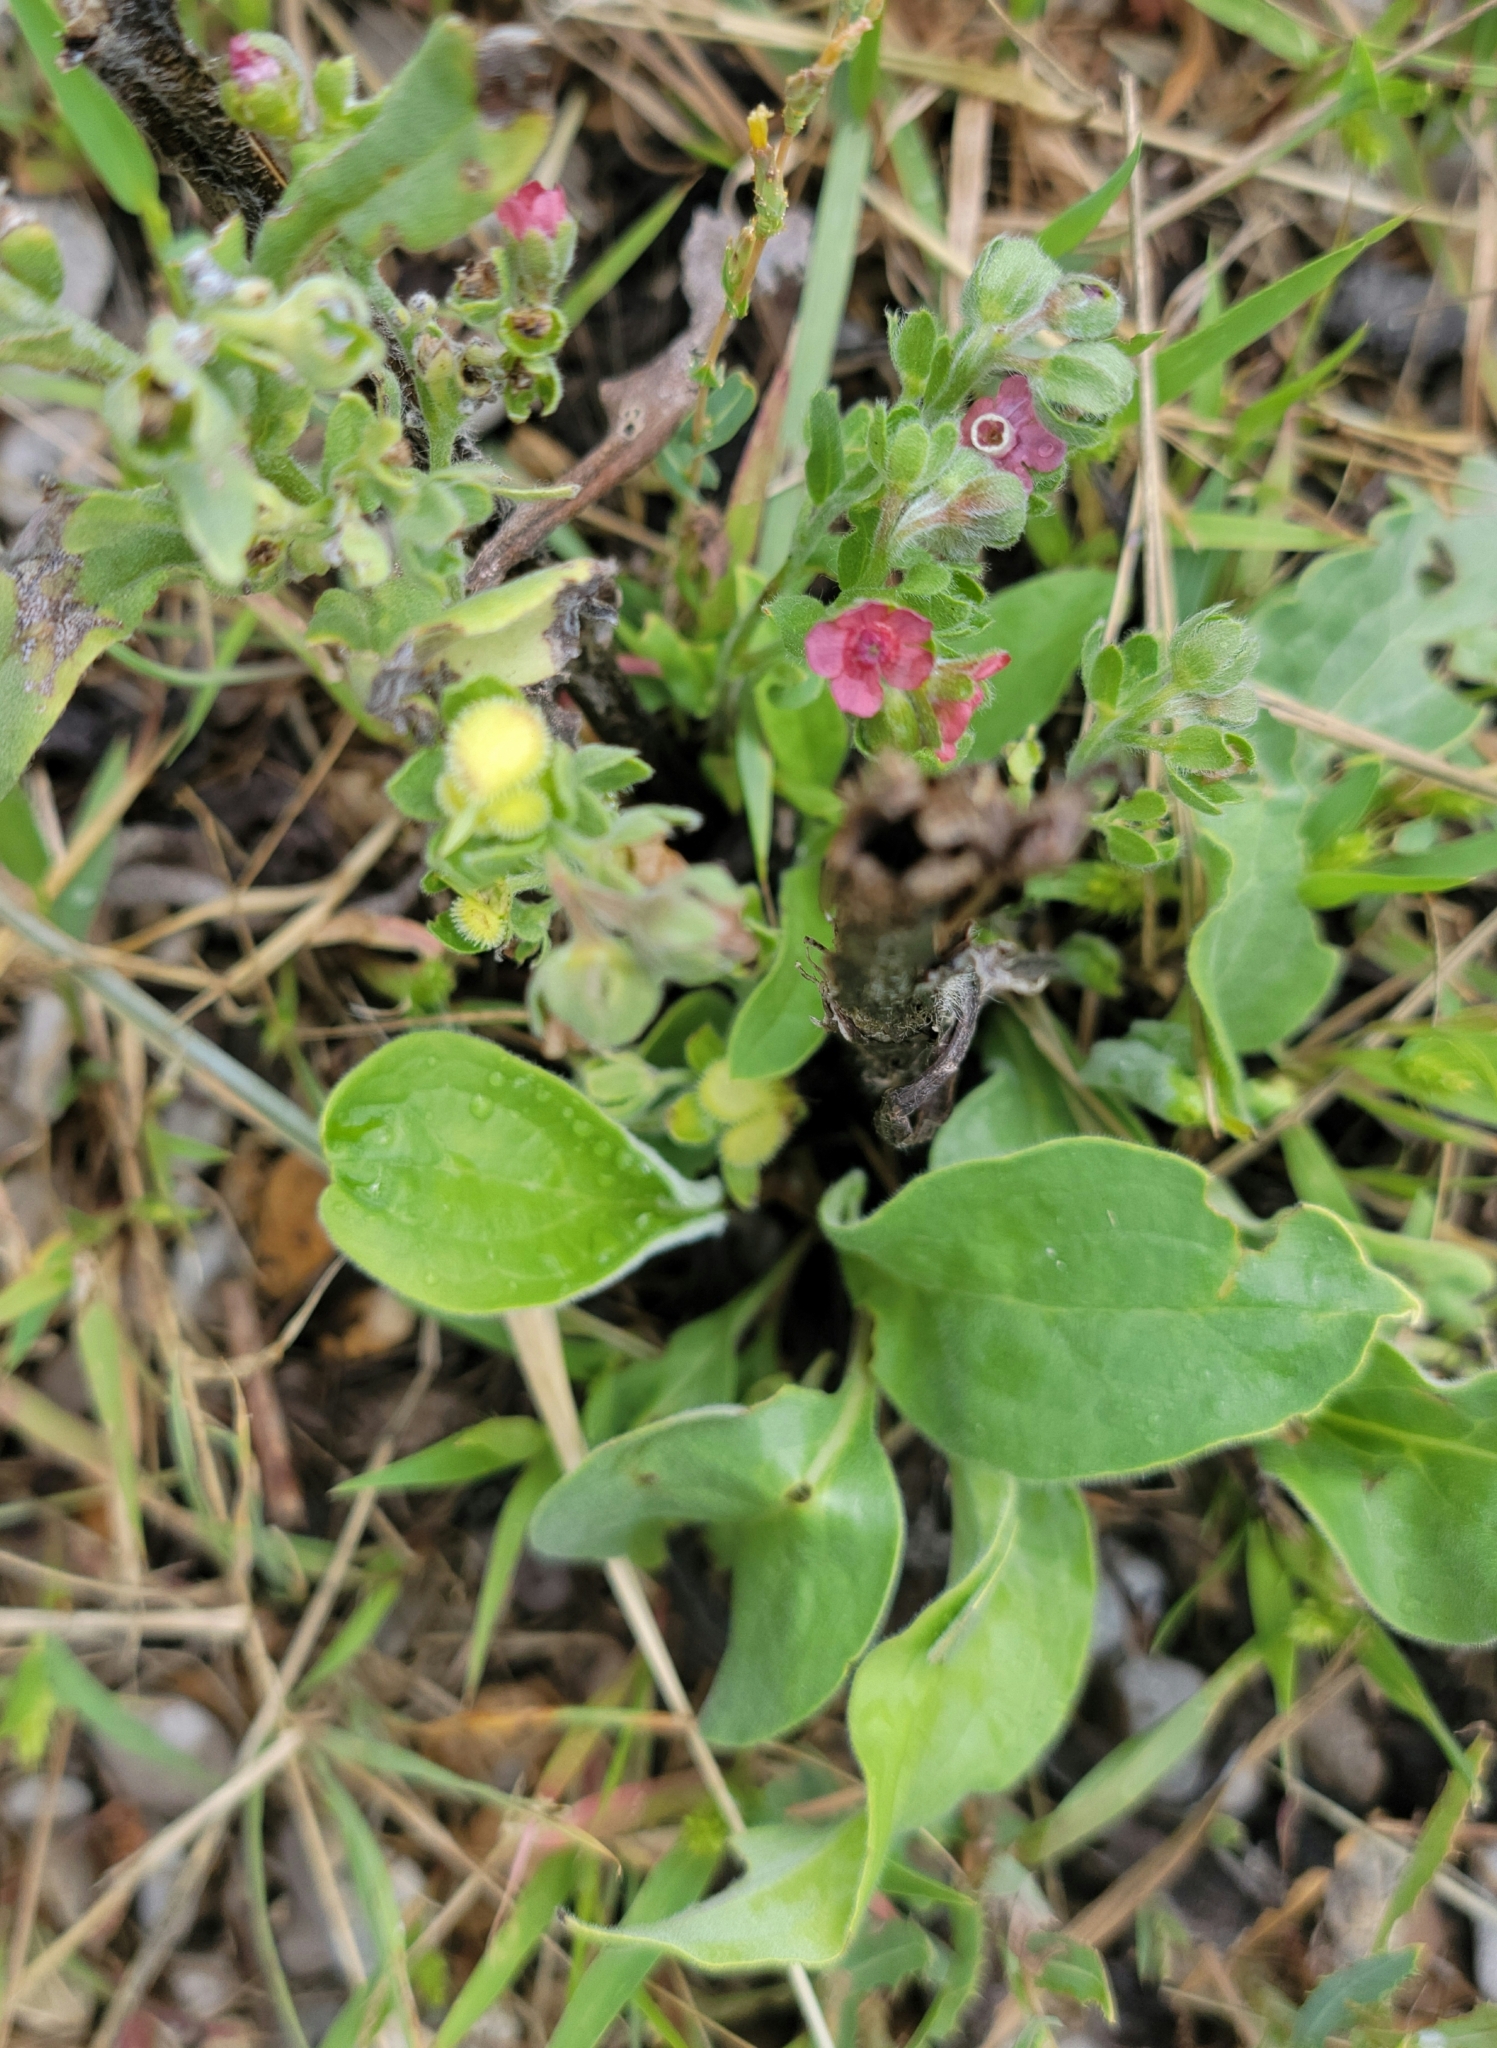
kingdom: Plantae
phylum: Tracheophyta
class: Magnoliopsida
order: Boraginales
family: Boraginaceae
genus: Cynoglossum
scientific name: Cynoglossum officinale
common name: Hound's-tongue
